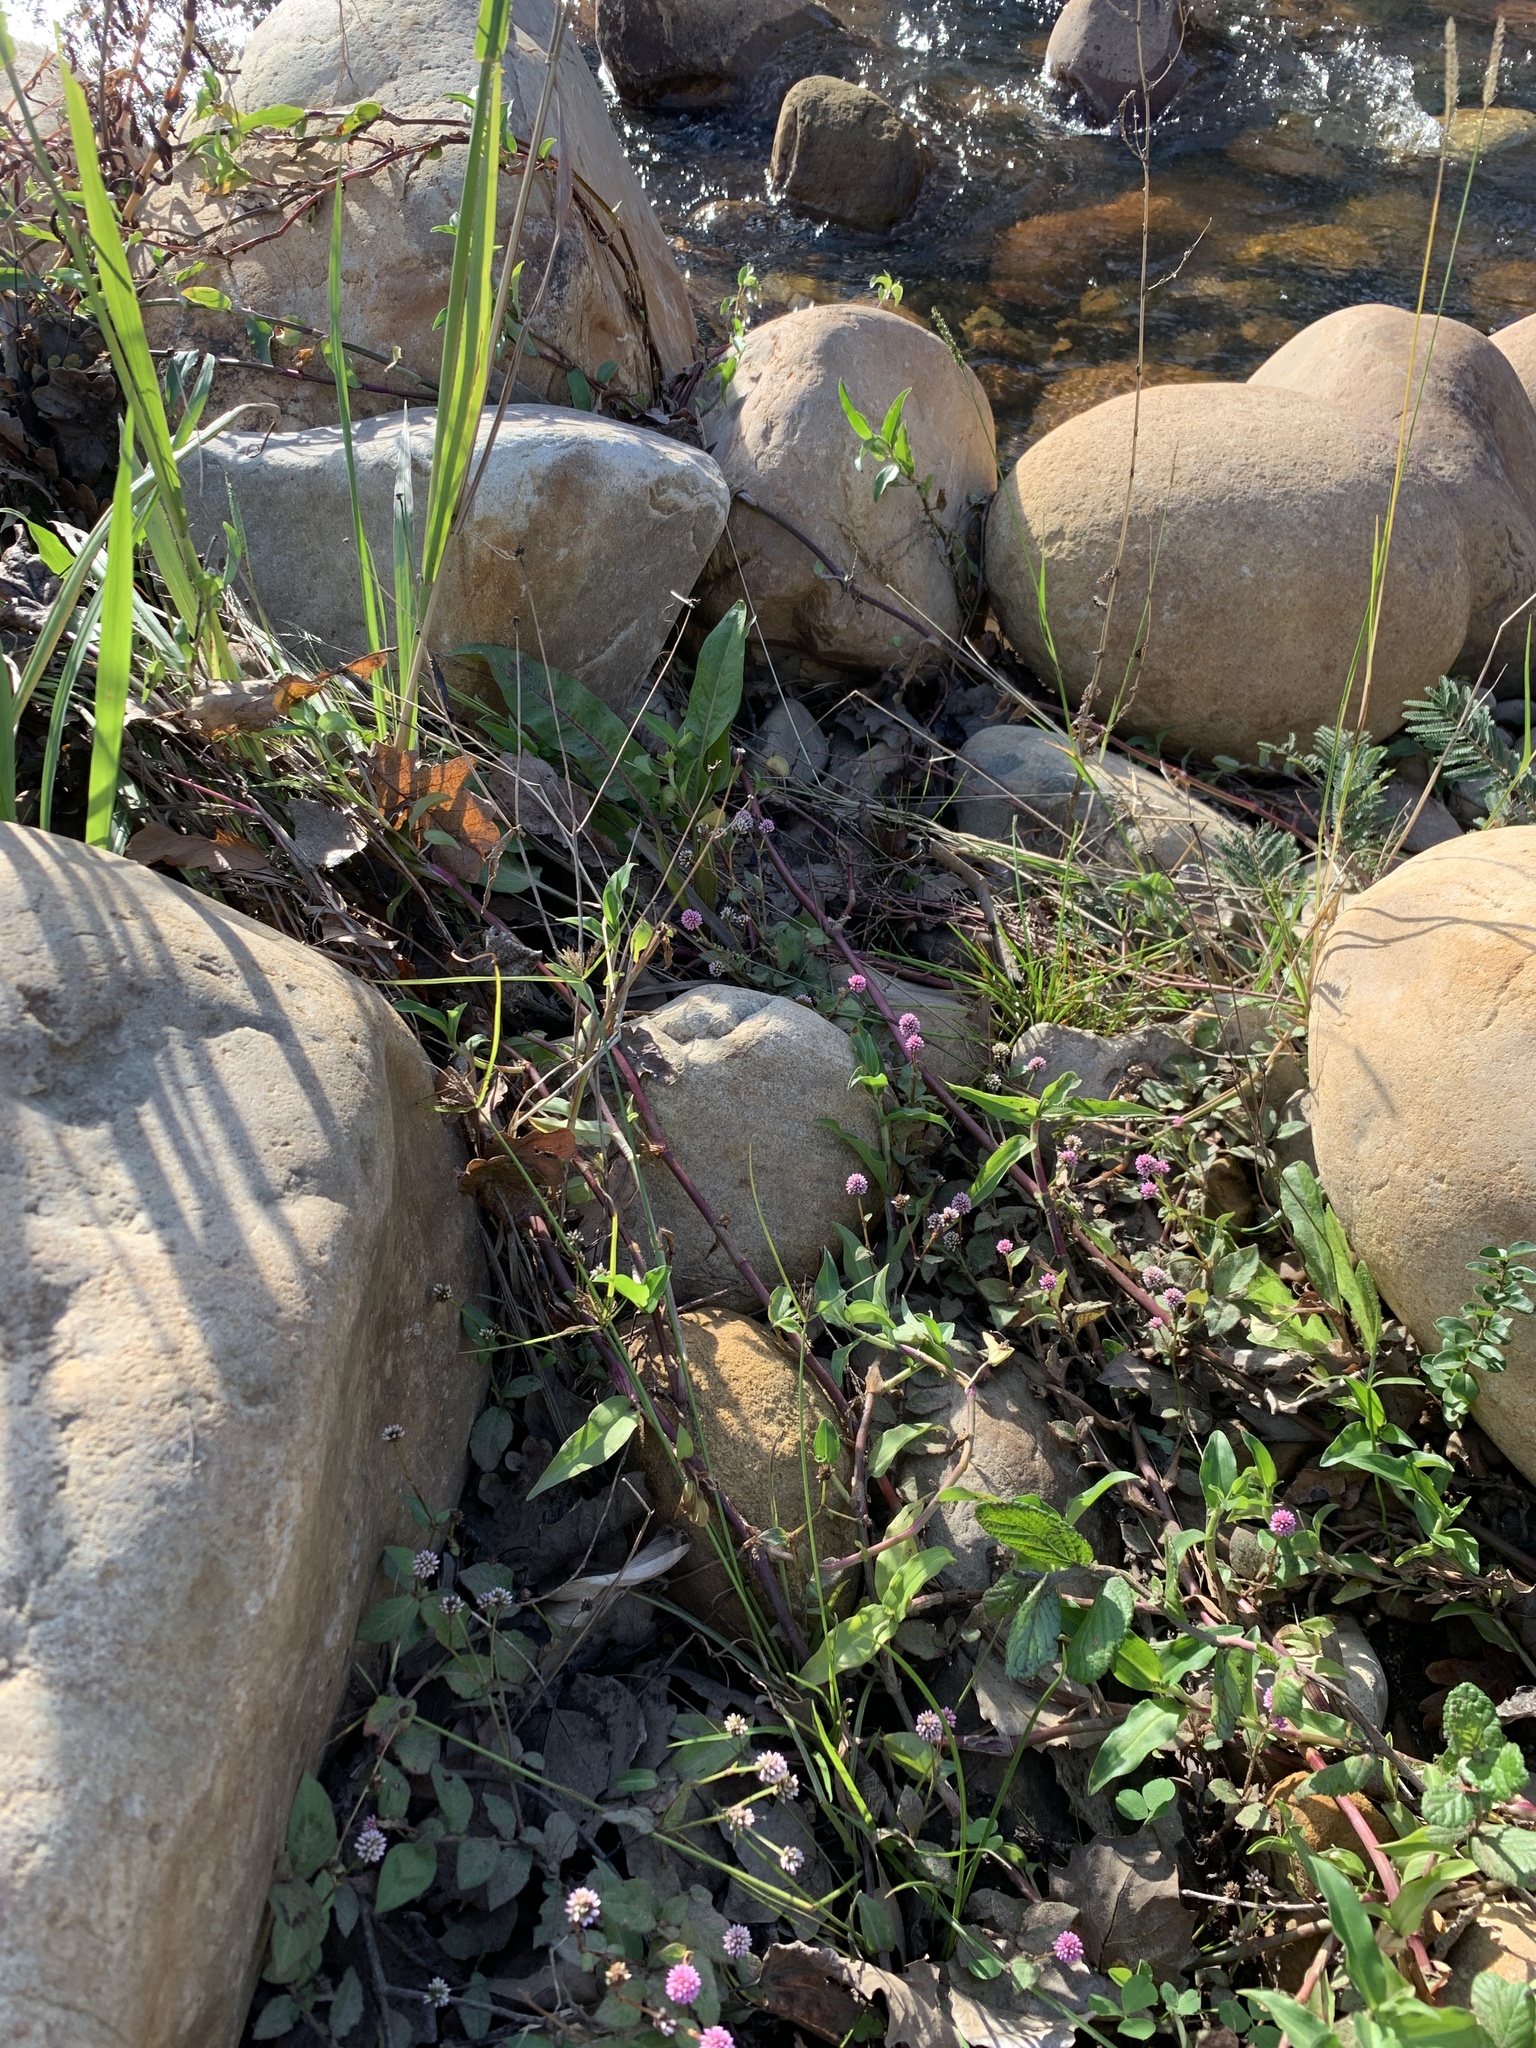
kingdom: Plantae
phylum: Tracheophyta
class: Magnoliopsida
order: Caryophyllales
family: Polygonaceae
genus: Persicaria
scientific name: Persicaria capitata
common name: Pinkhead smartweed
